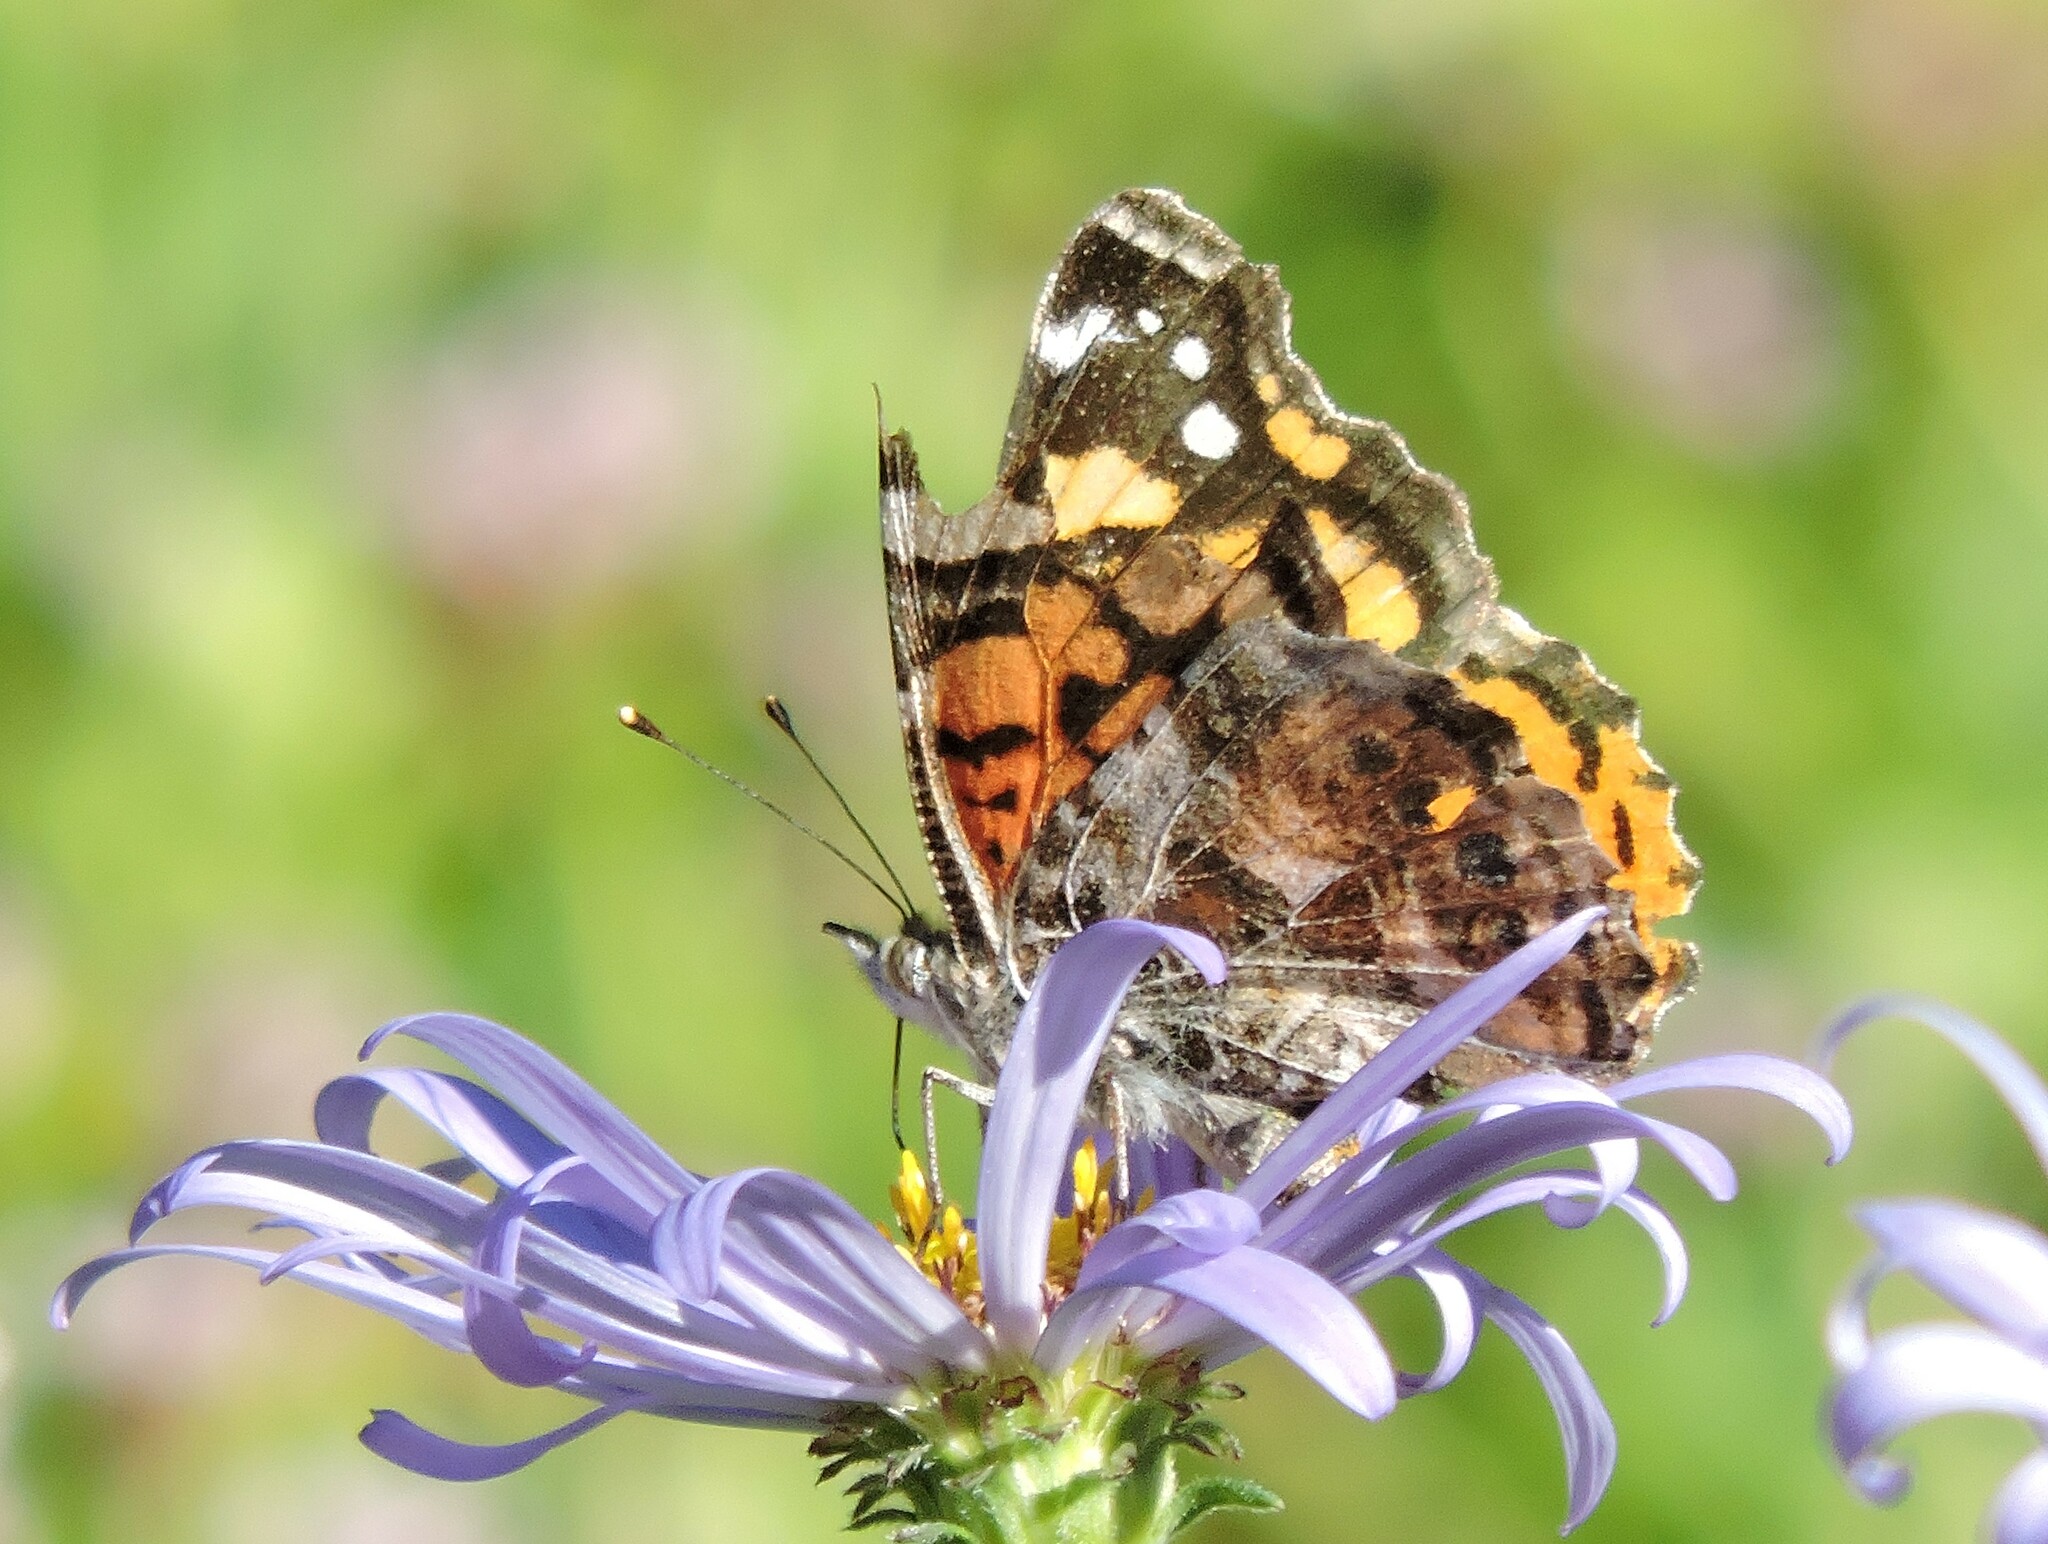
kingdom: Animalia
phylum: Arthropoda
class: Insecta
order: Lepidoptera
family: Nymphalidae
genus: Vanessa
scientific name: Vanessa annabella
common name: West coast lady
